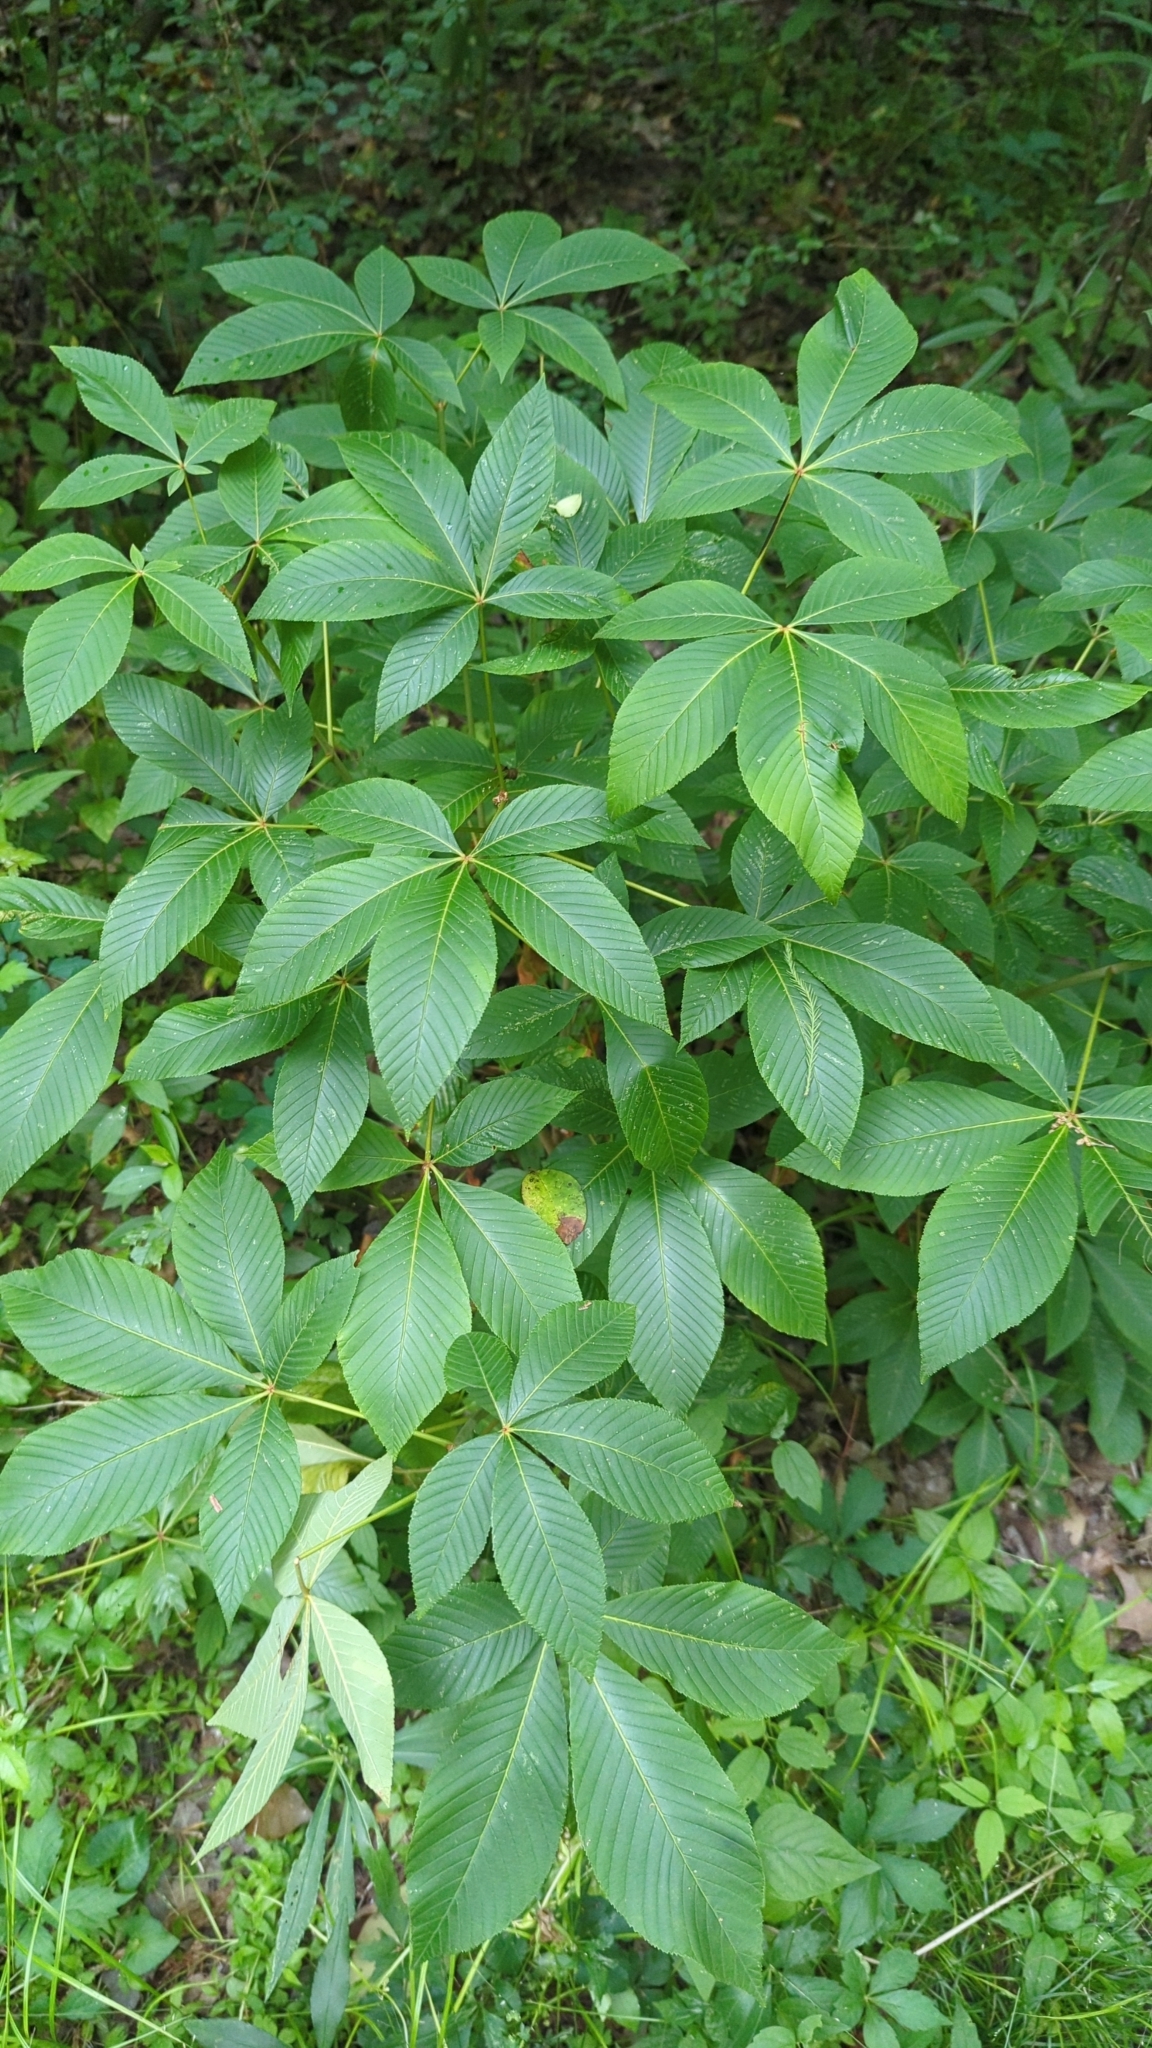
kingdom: Plantae
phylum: Tracheophyta
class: Magnoliopsida
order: Sapindales
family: Sapindaceae
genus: Aesculus
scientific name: Aesculus pavia
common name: Red buckeye
